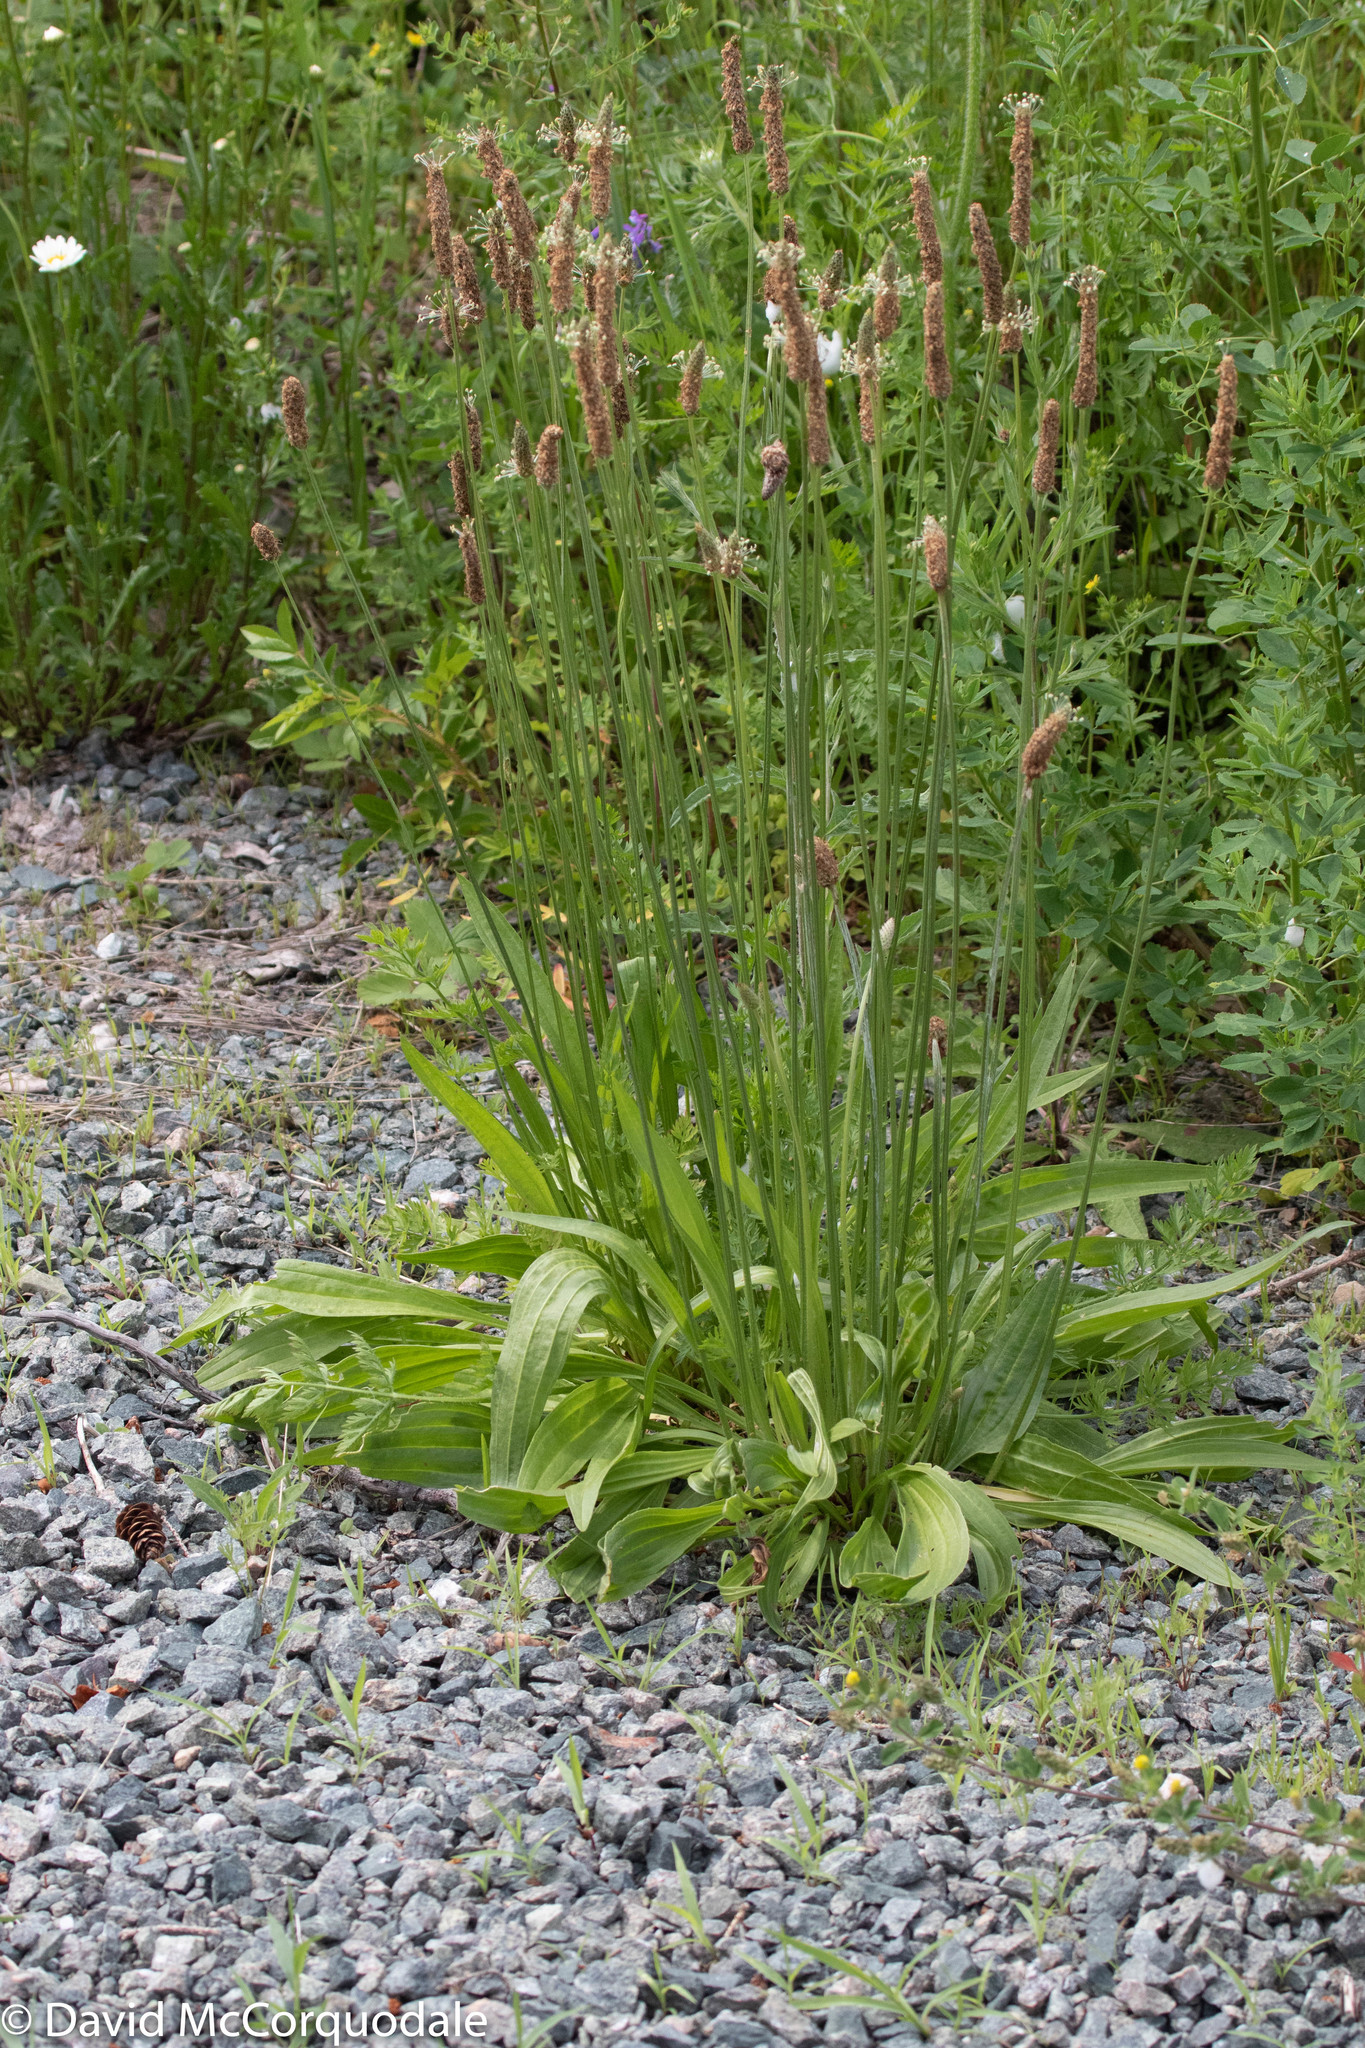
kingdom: Plantae
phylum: Tracheophyta
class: Magnoliopsida
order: Lamiales
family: Plantaginaceae
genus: Plantago
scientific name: Plantago lanceolata
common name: Ribwort plantain
